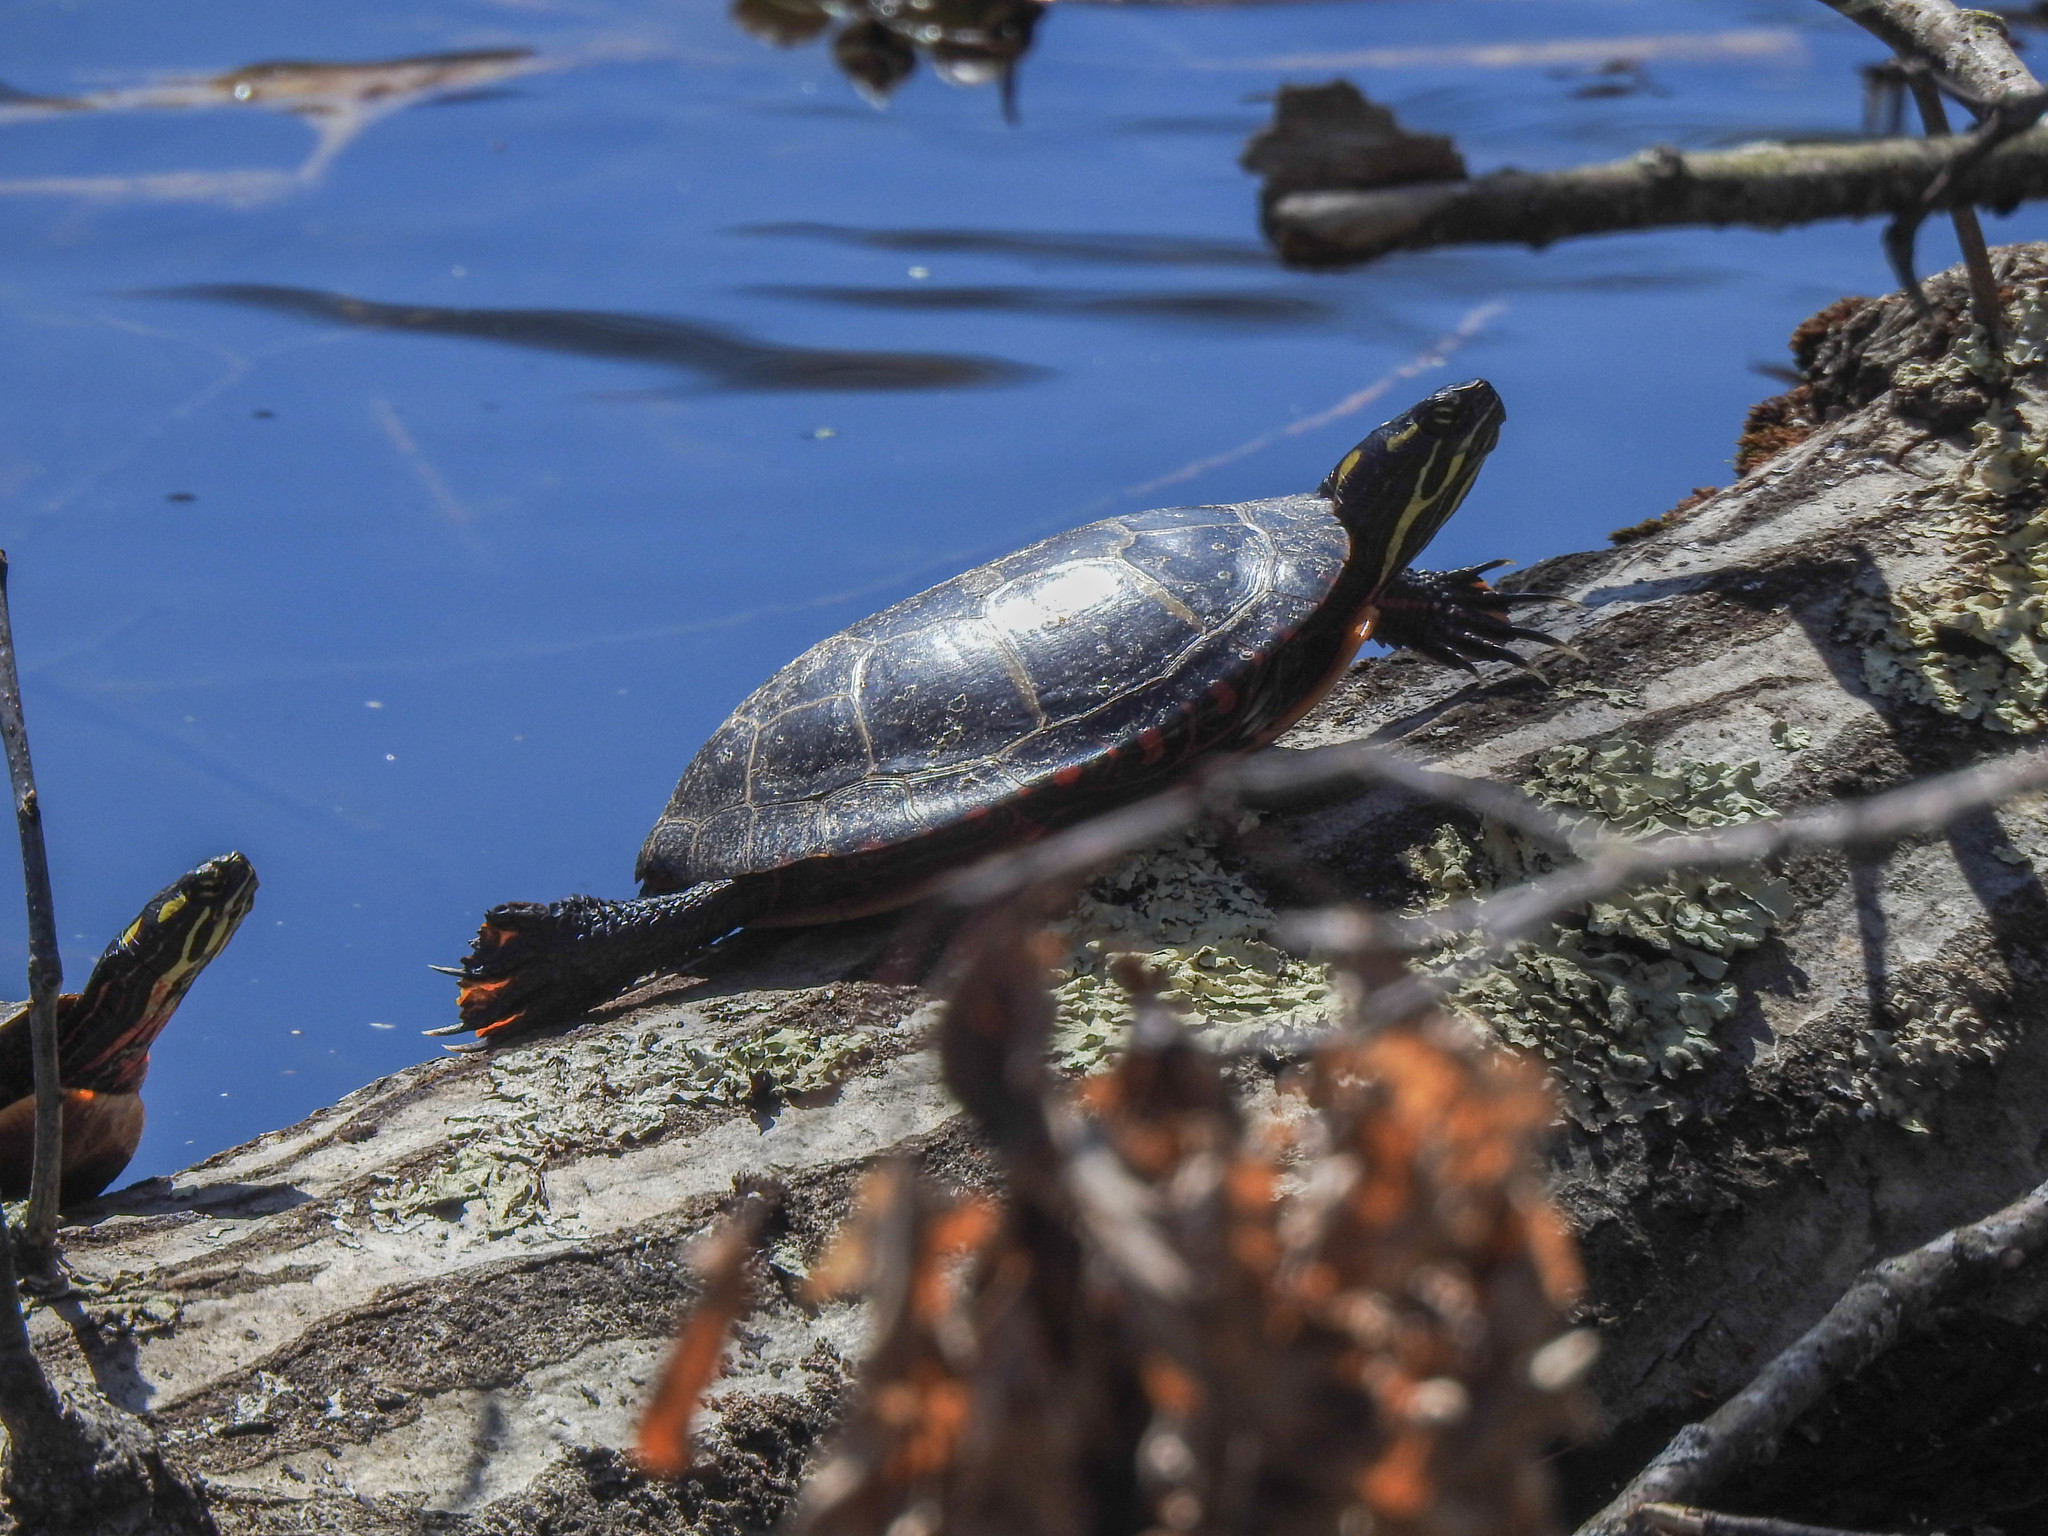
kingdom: Animalia
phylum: Chordata
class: Testudines
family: Emydidae
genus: Chrysemys
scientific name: Chrysemys picta
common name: Painted turtle
